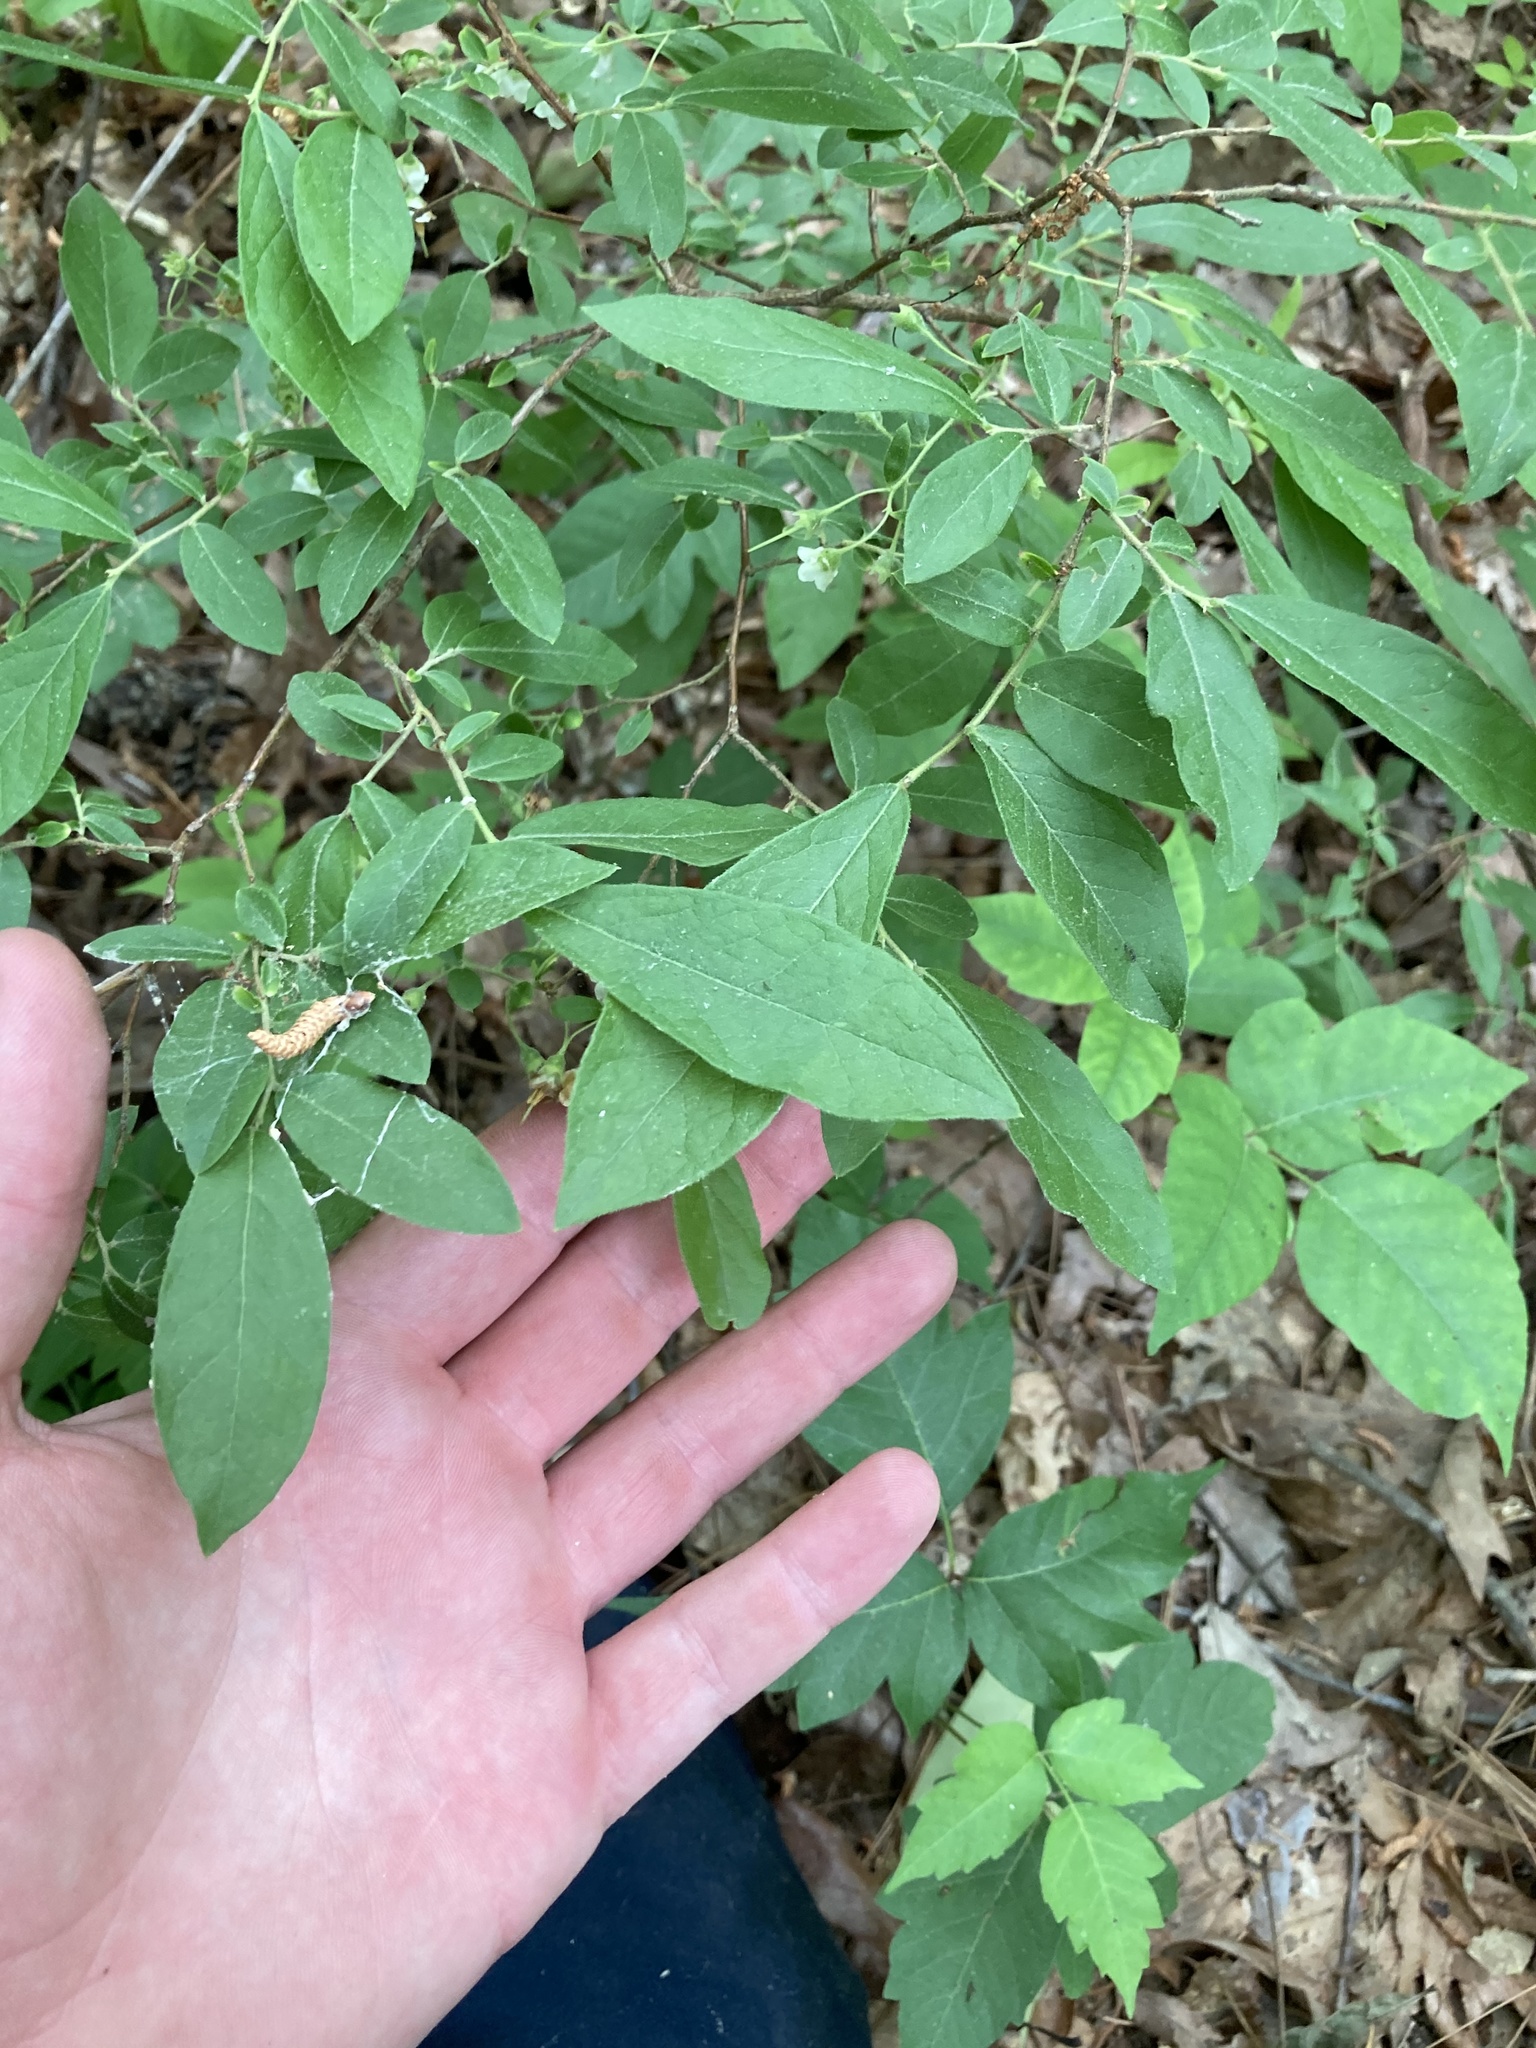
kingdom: Plantae
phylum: Tracheophyta
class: Magnoliopsida
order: Ericales
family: Ericaceae
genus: Vaccinium
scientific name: Vaccinium
